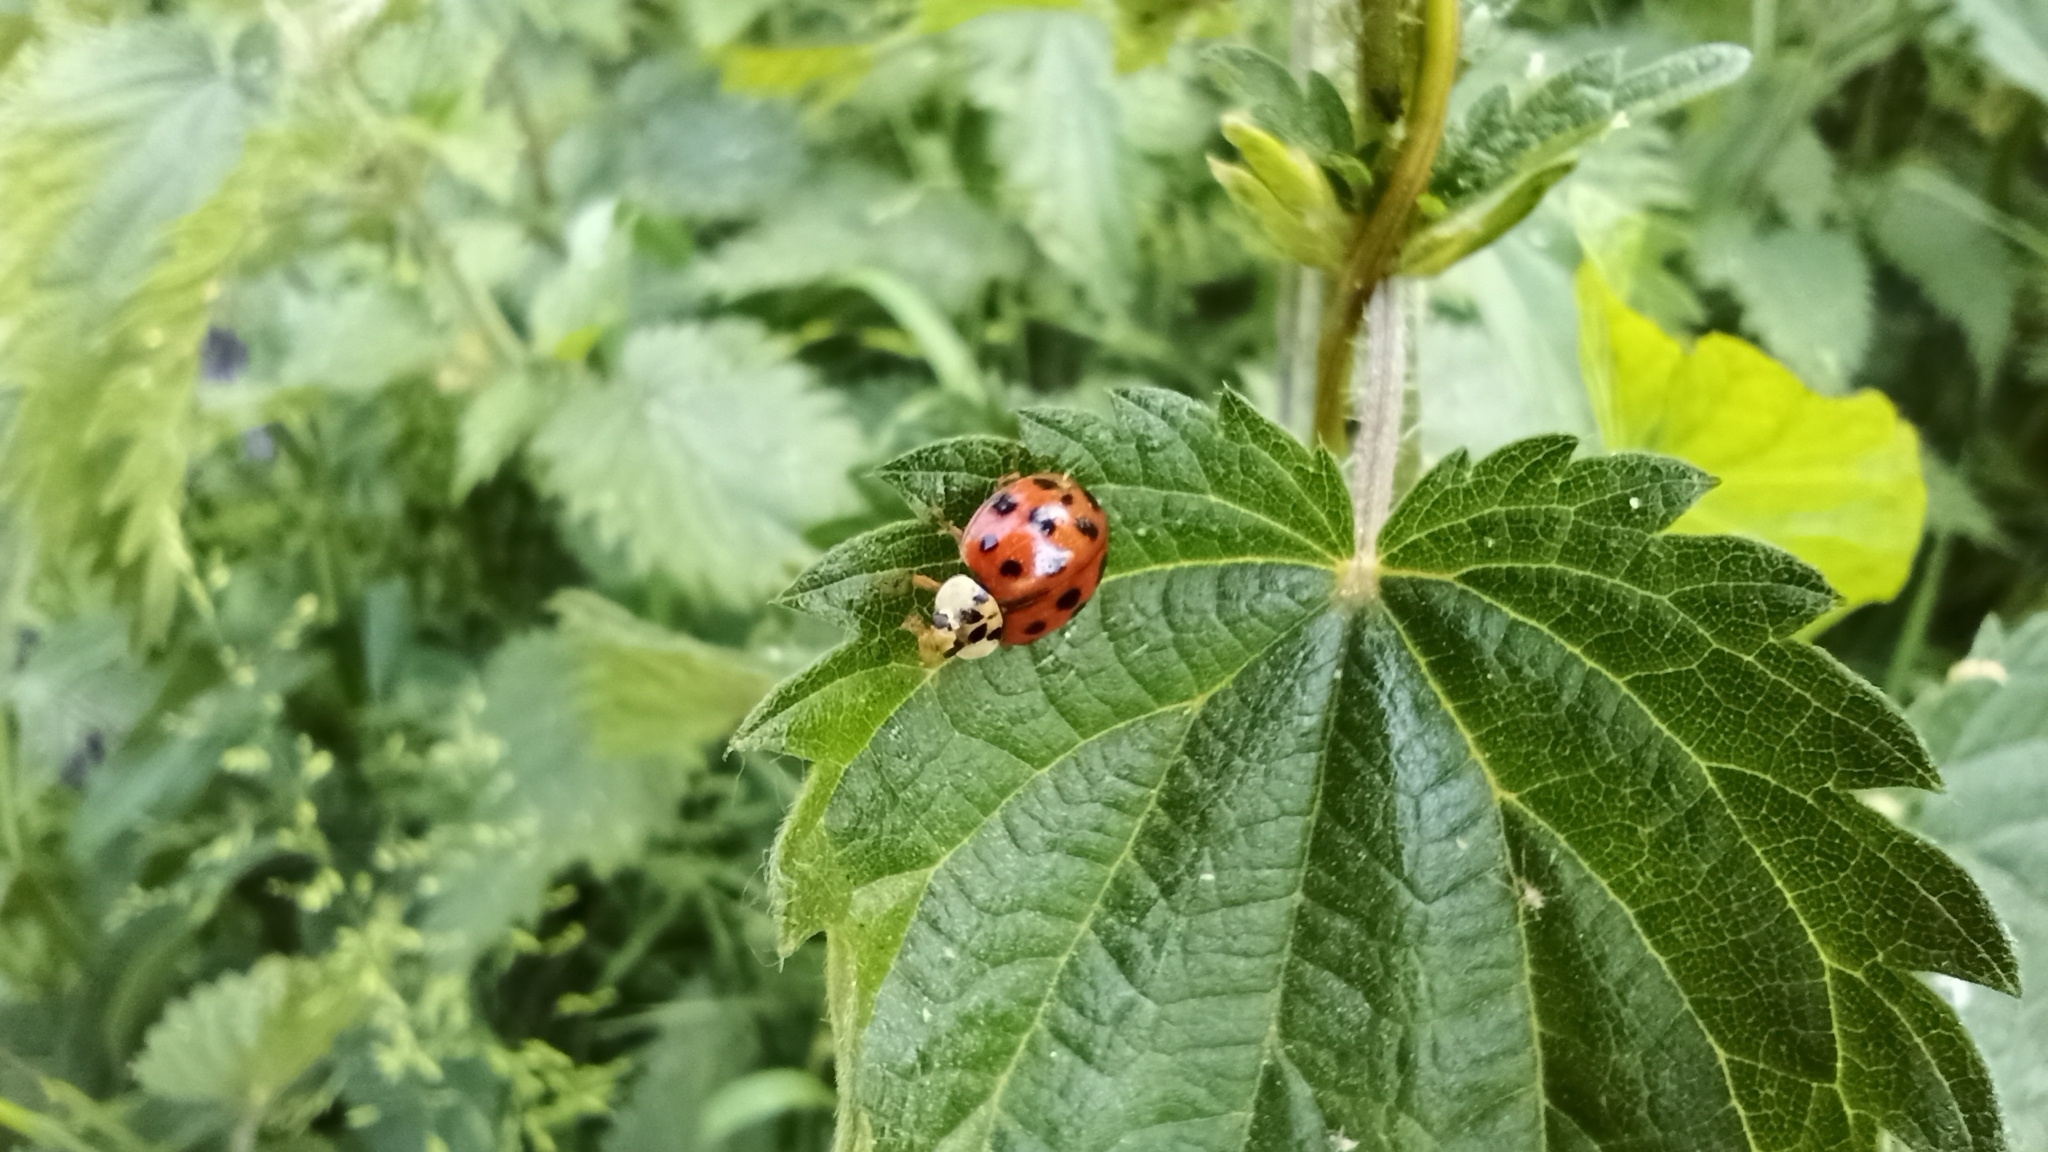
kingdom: Animalia
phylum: Arthropoda
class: Insecta
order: Coleoptera
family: Coccinellidae
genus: Harmonia
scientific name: Harmonia axyridis
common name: Harlequin ladybird
